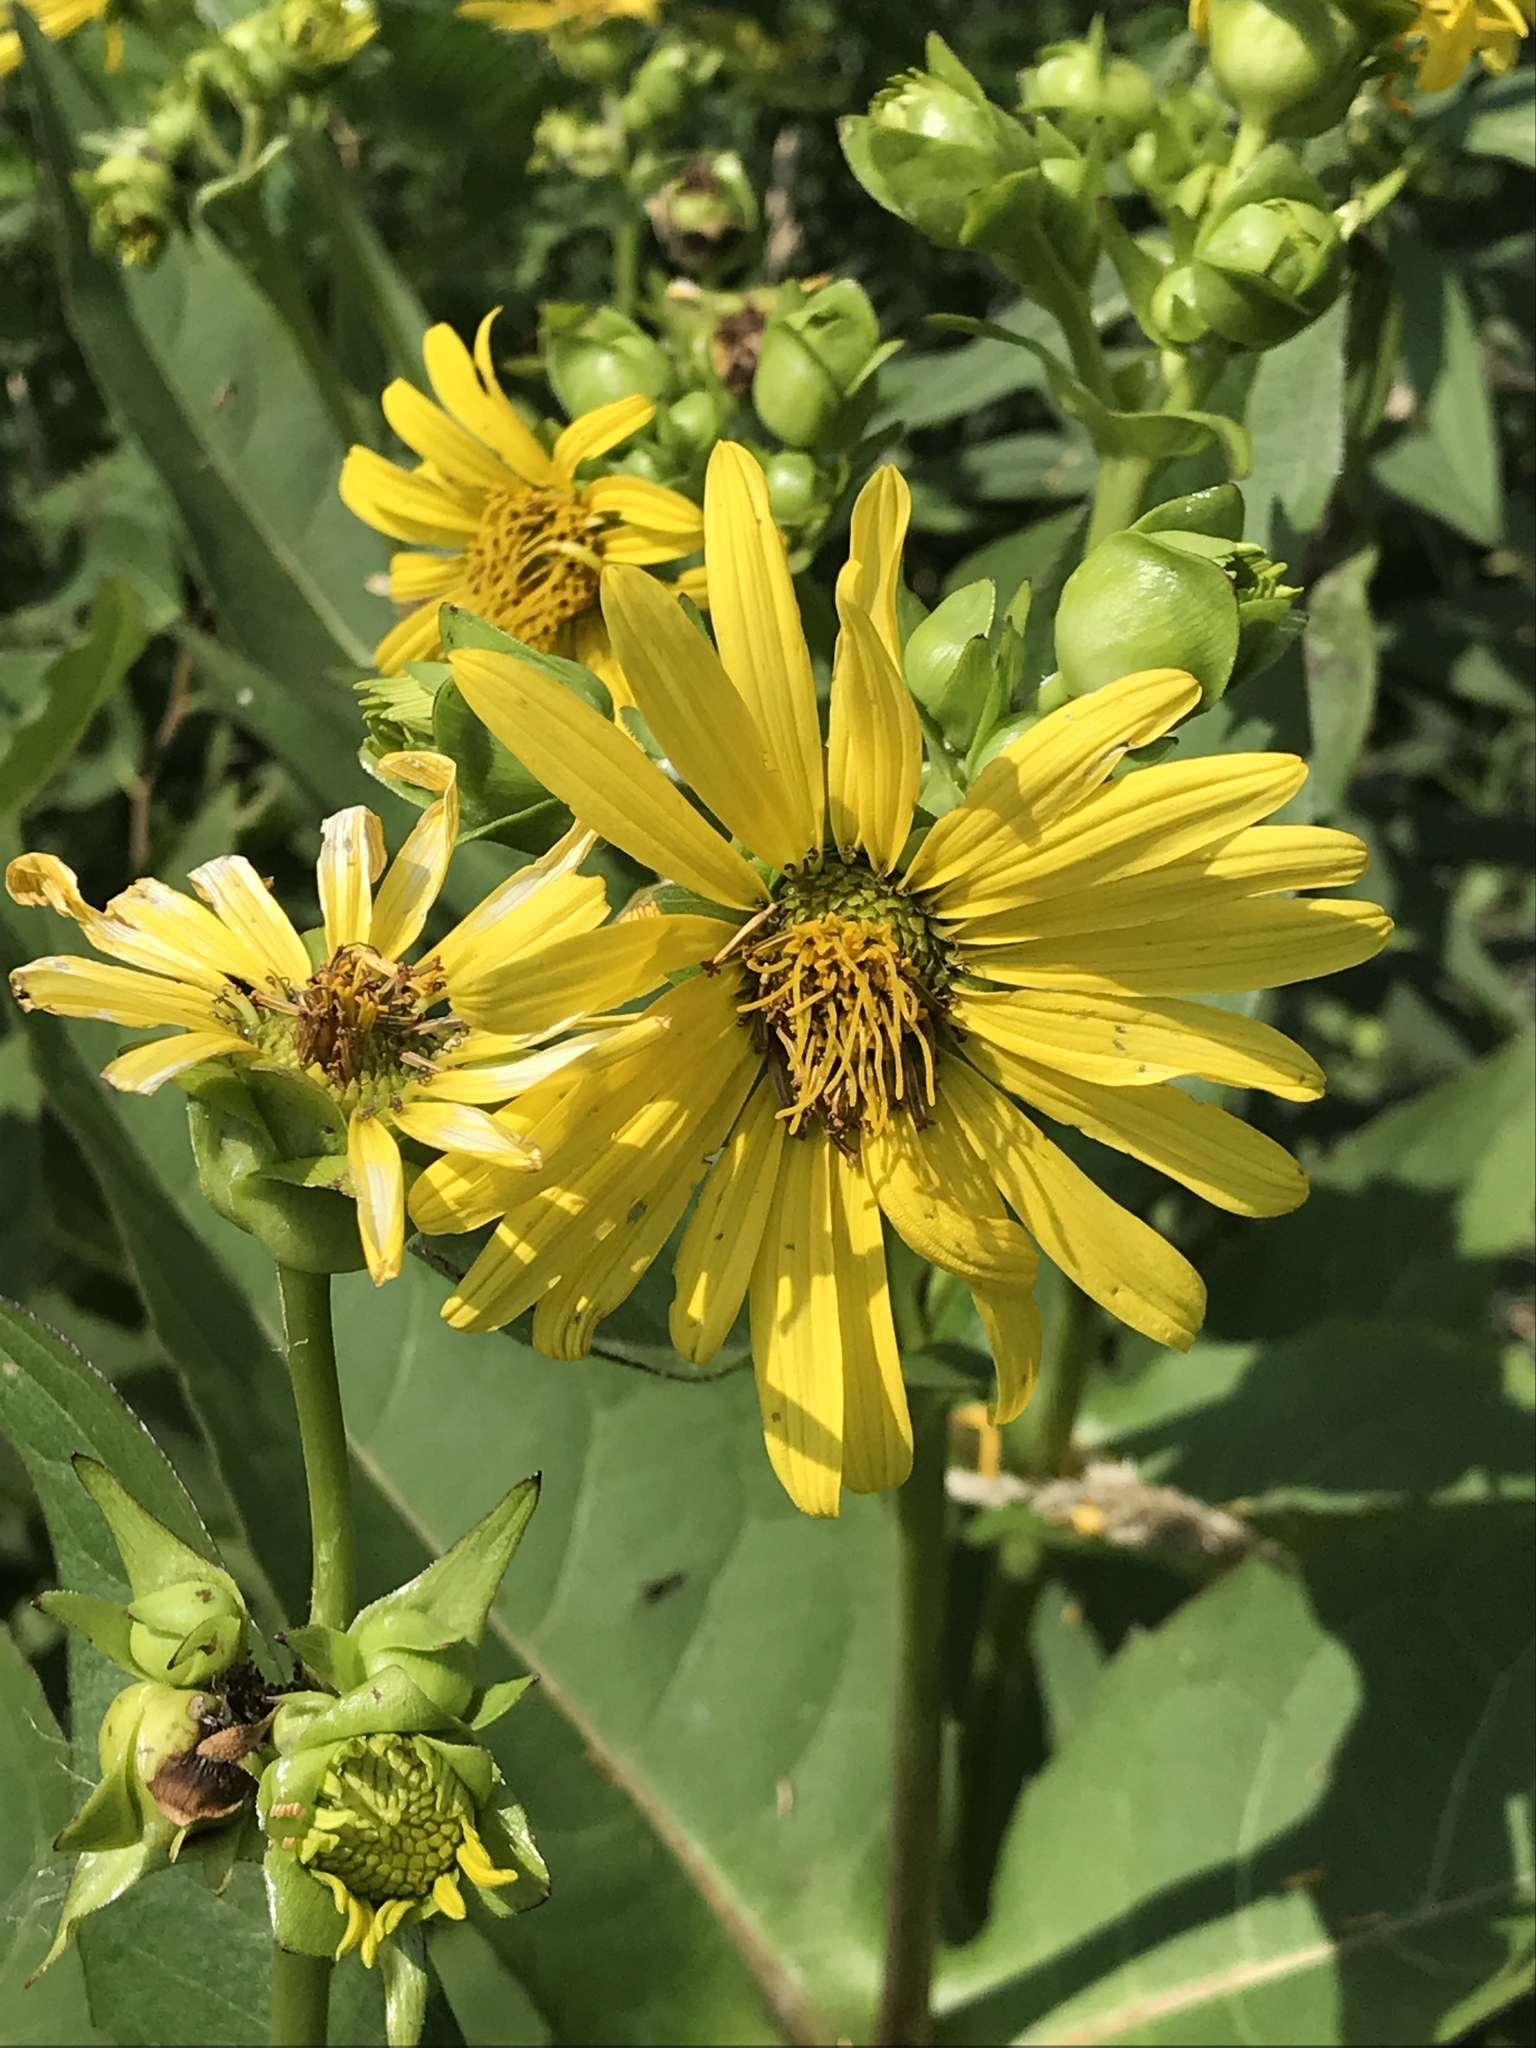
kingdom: Plantae
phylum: Tracheophyta
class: Magnoliopsida
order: Asterales
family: Asteraceae
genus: Silphium
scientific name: Silphium perfoliatum
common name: Cup-plant
